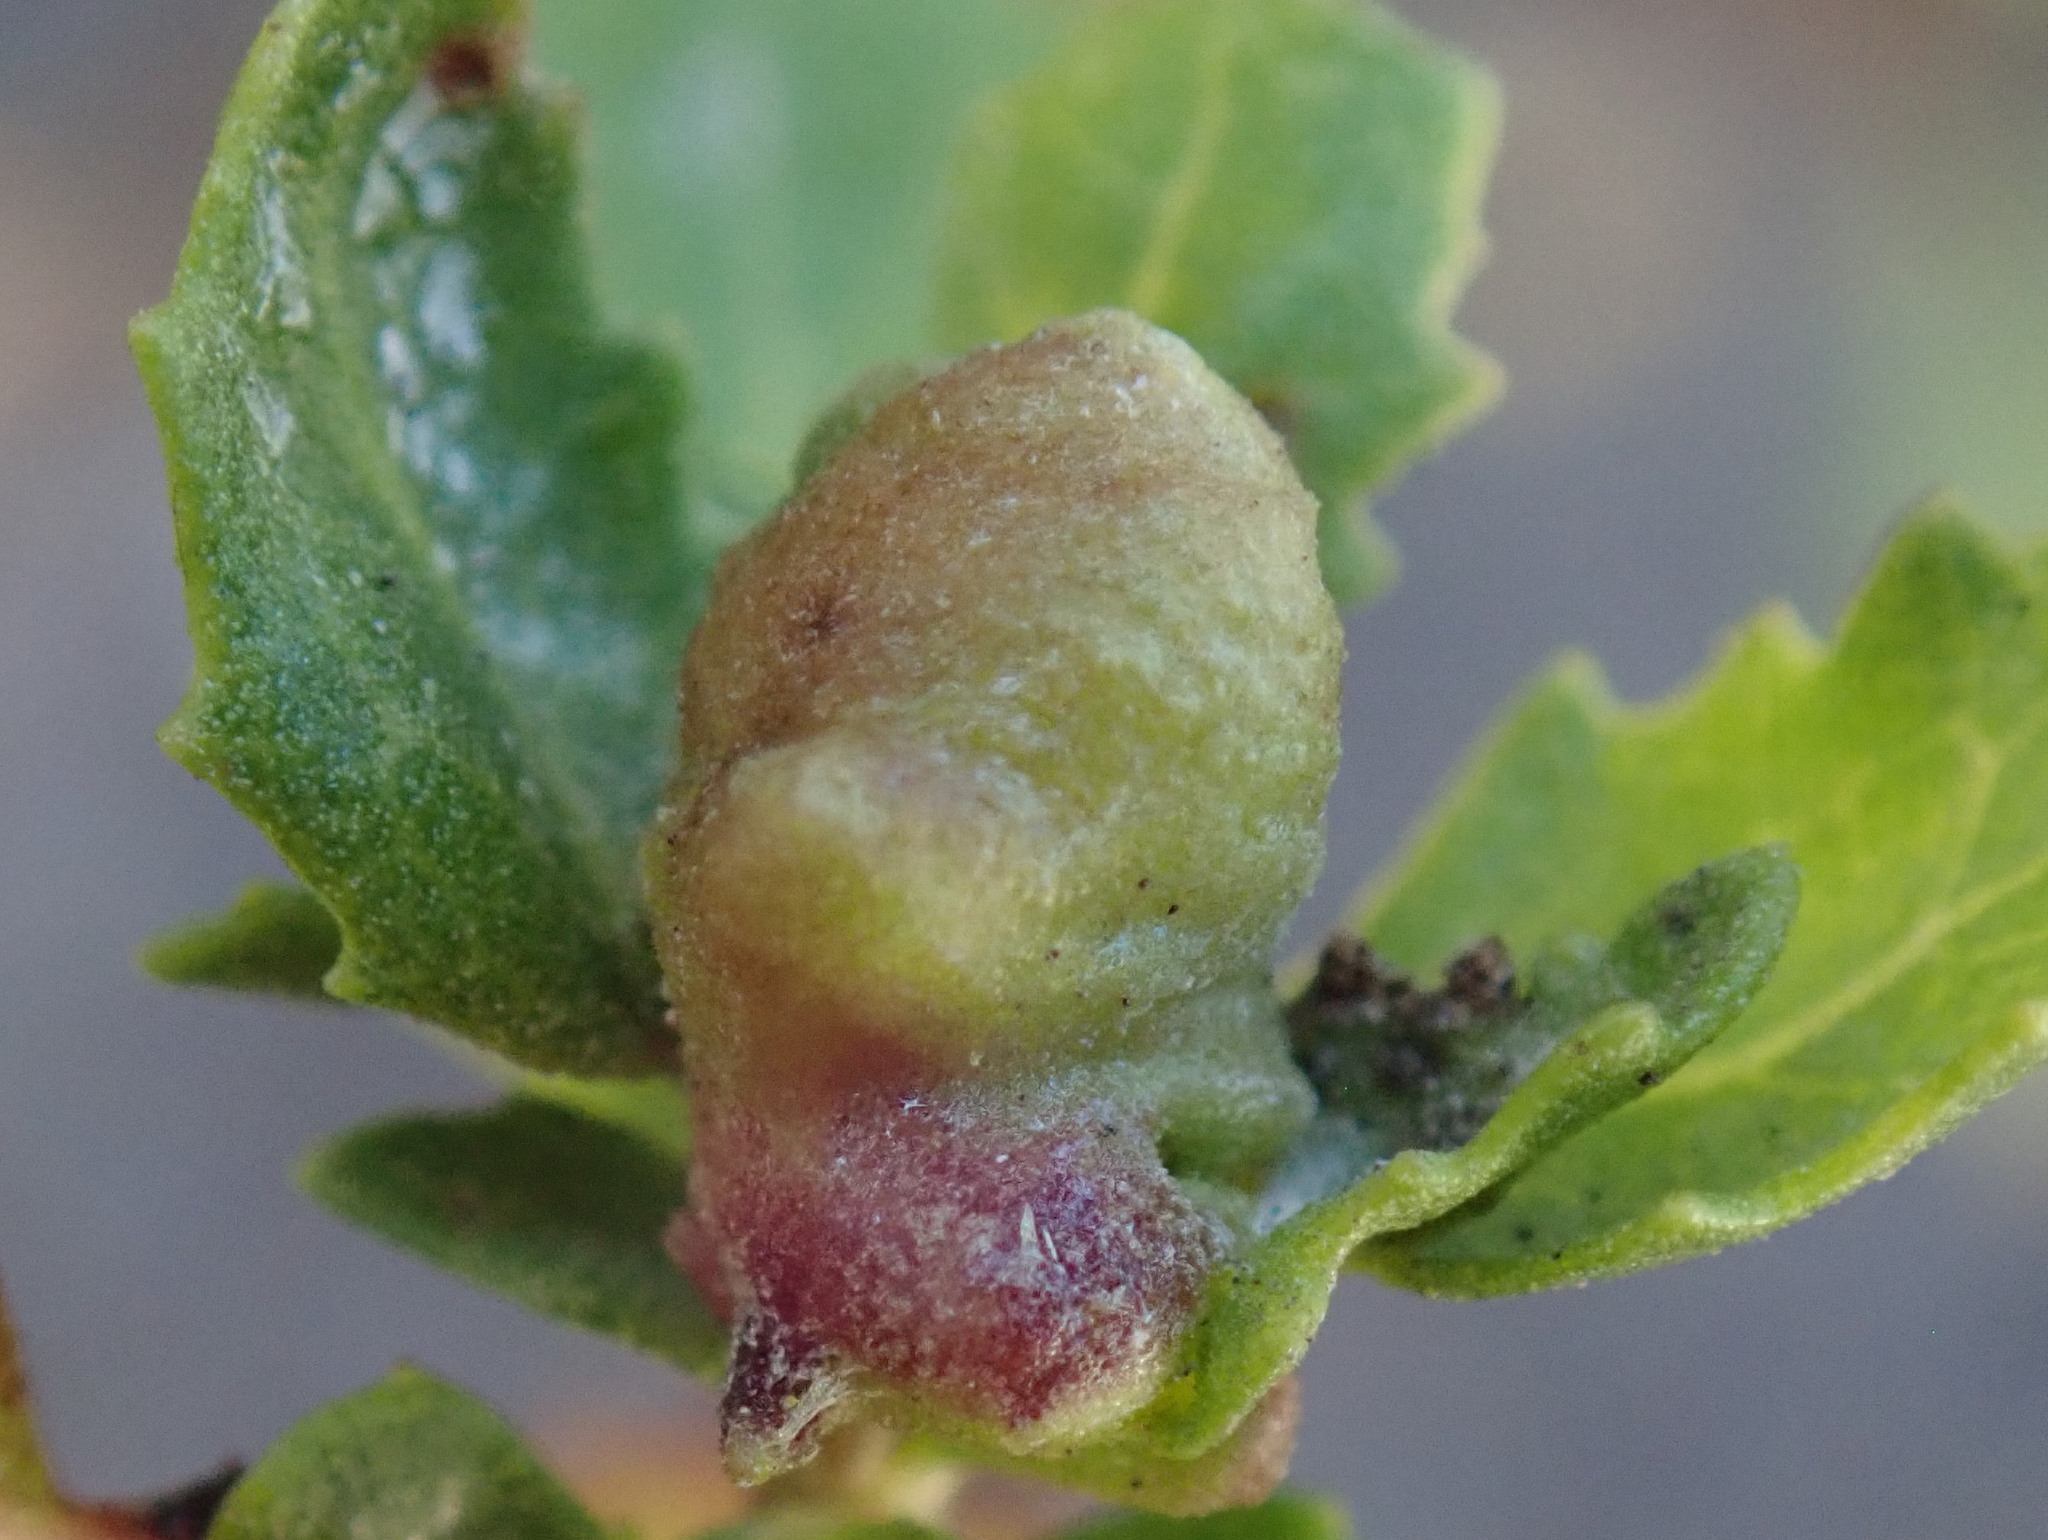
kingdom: Animalia
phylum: Arthropoda
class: Insecta
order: Diptera
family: Cecidomyiidae
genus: Rhopalomyia
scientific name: Rhopalomyia californica
